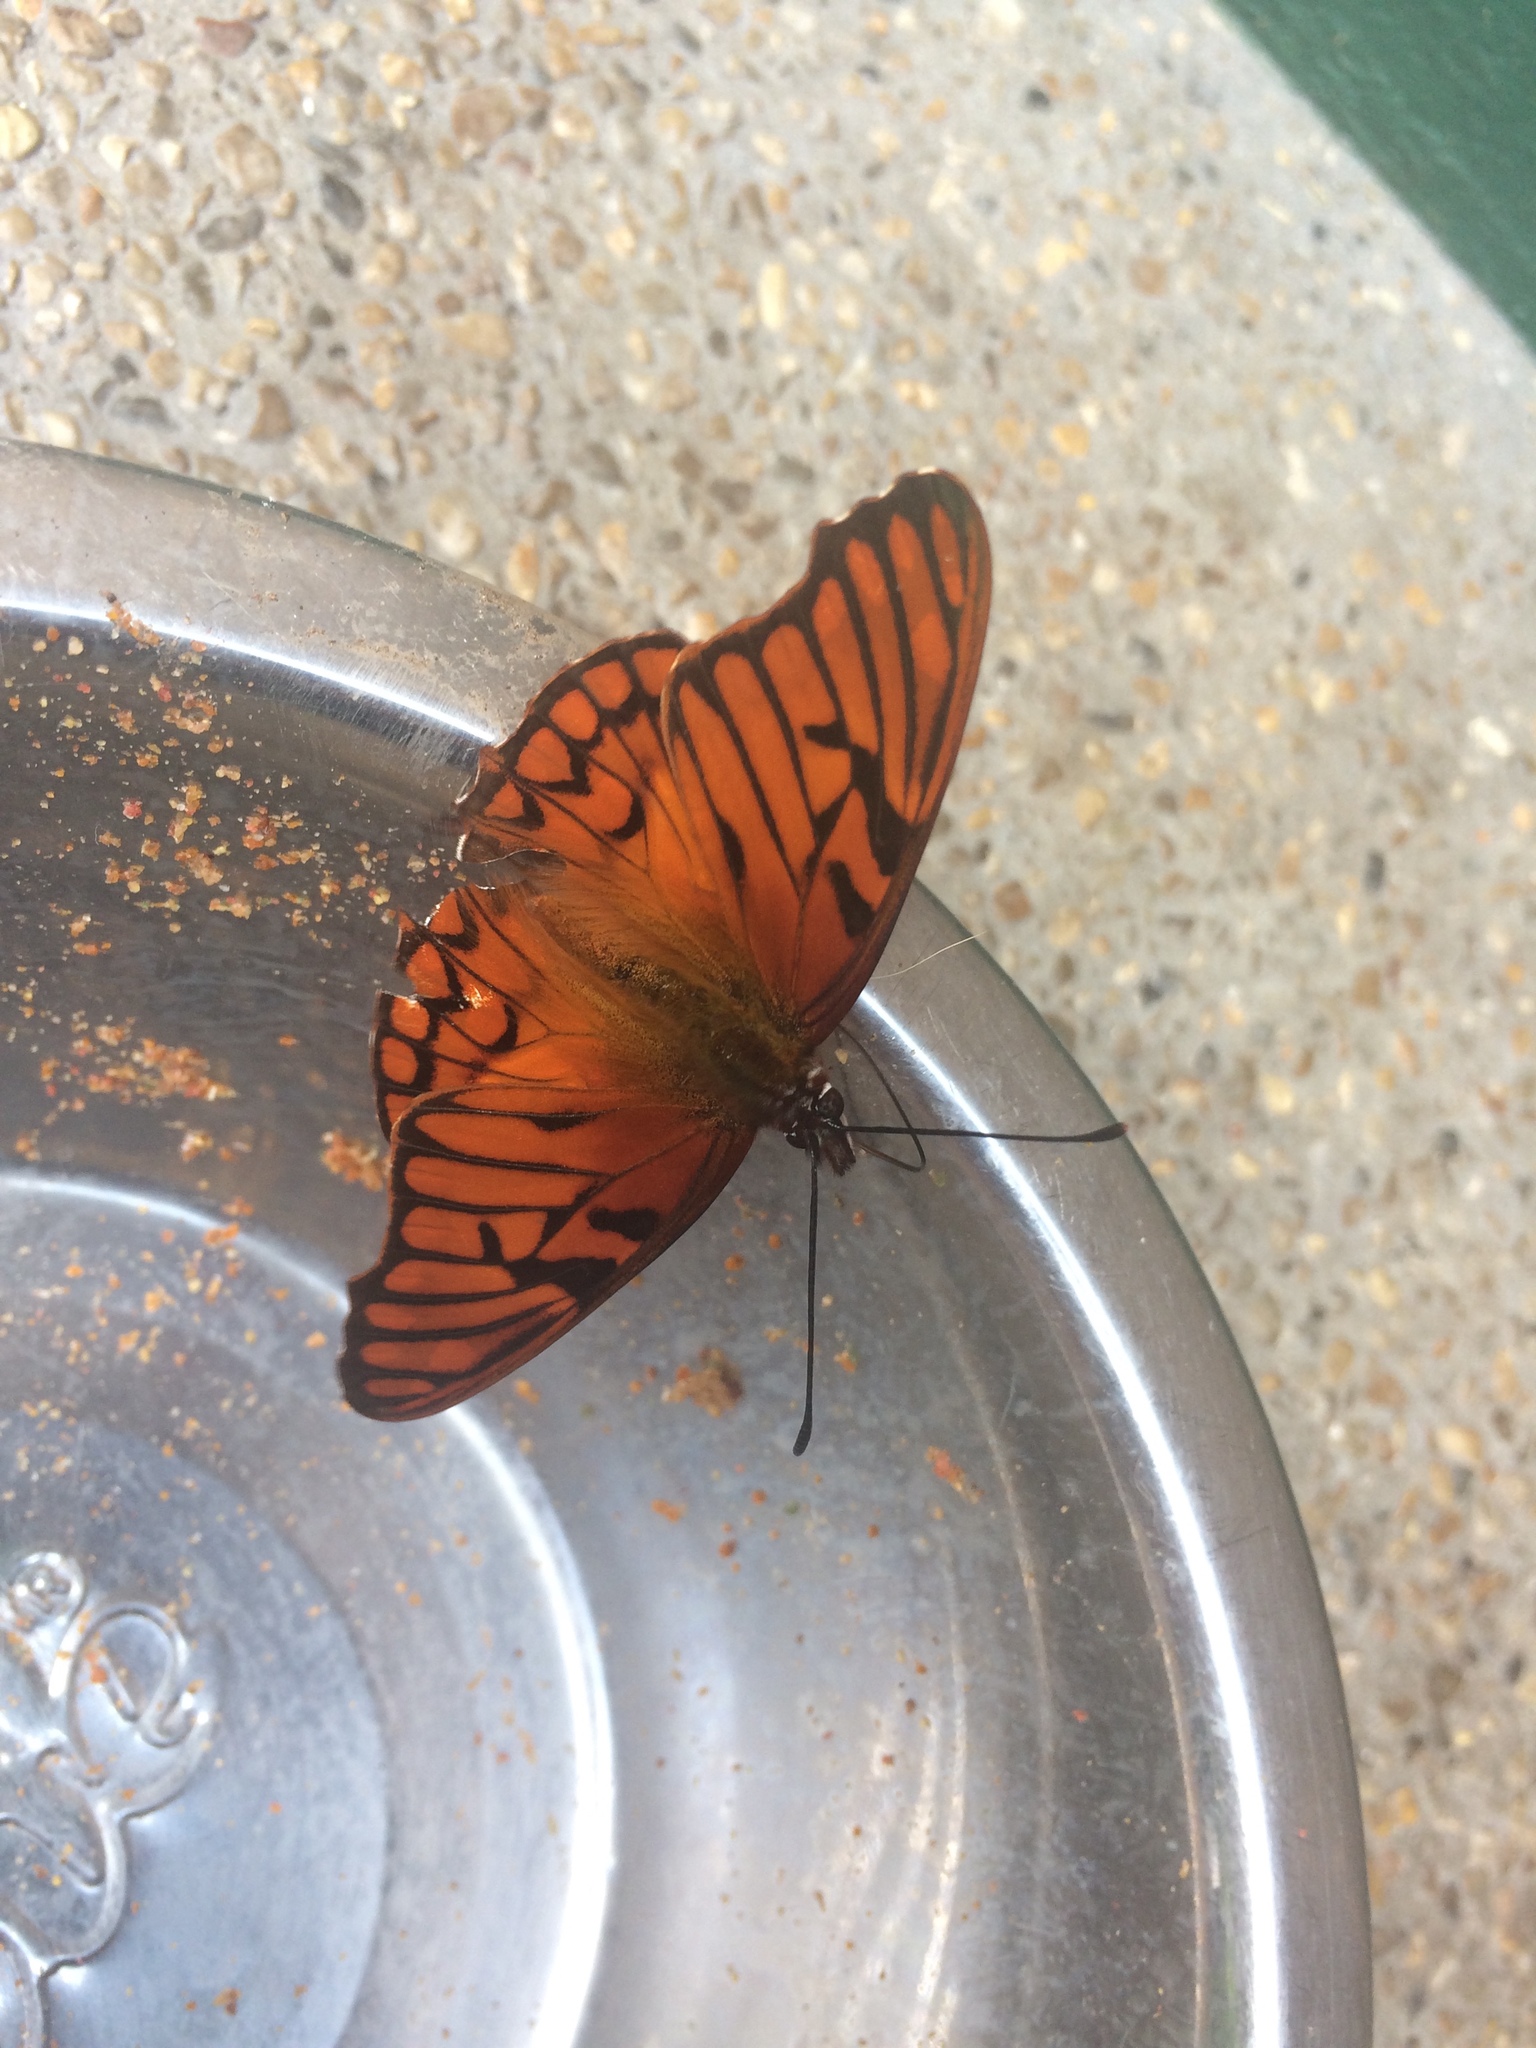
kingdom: Animalia
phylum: Arthropoda
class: Insecta
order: Lepidoptera
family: Nymphalidae
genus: Dione
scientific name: Dione glycera
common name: Andean silverspot
